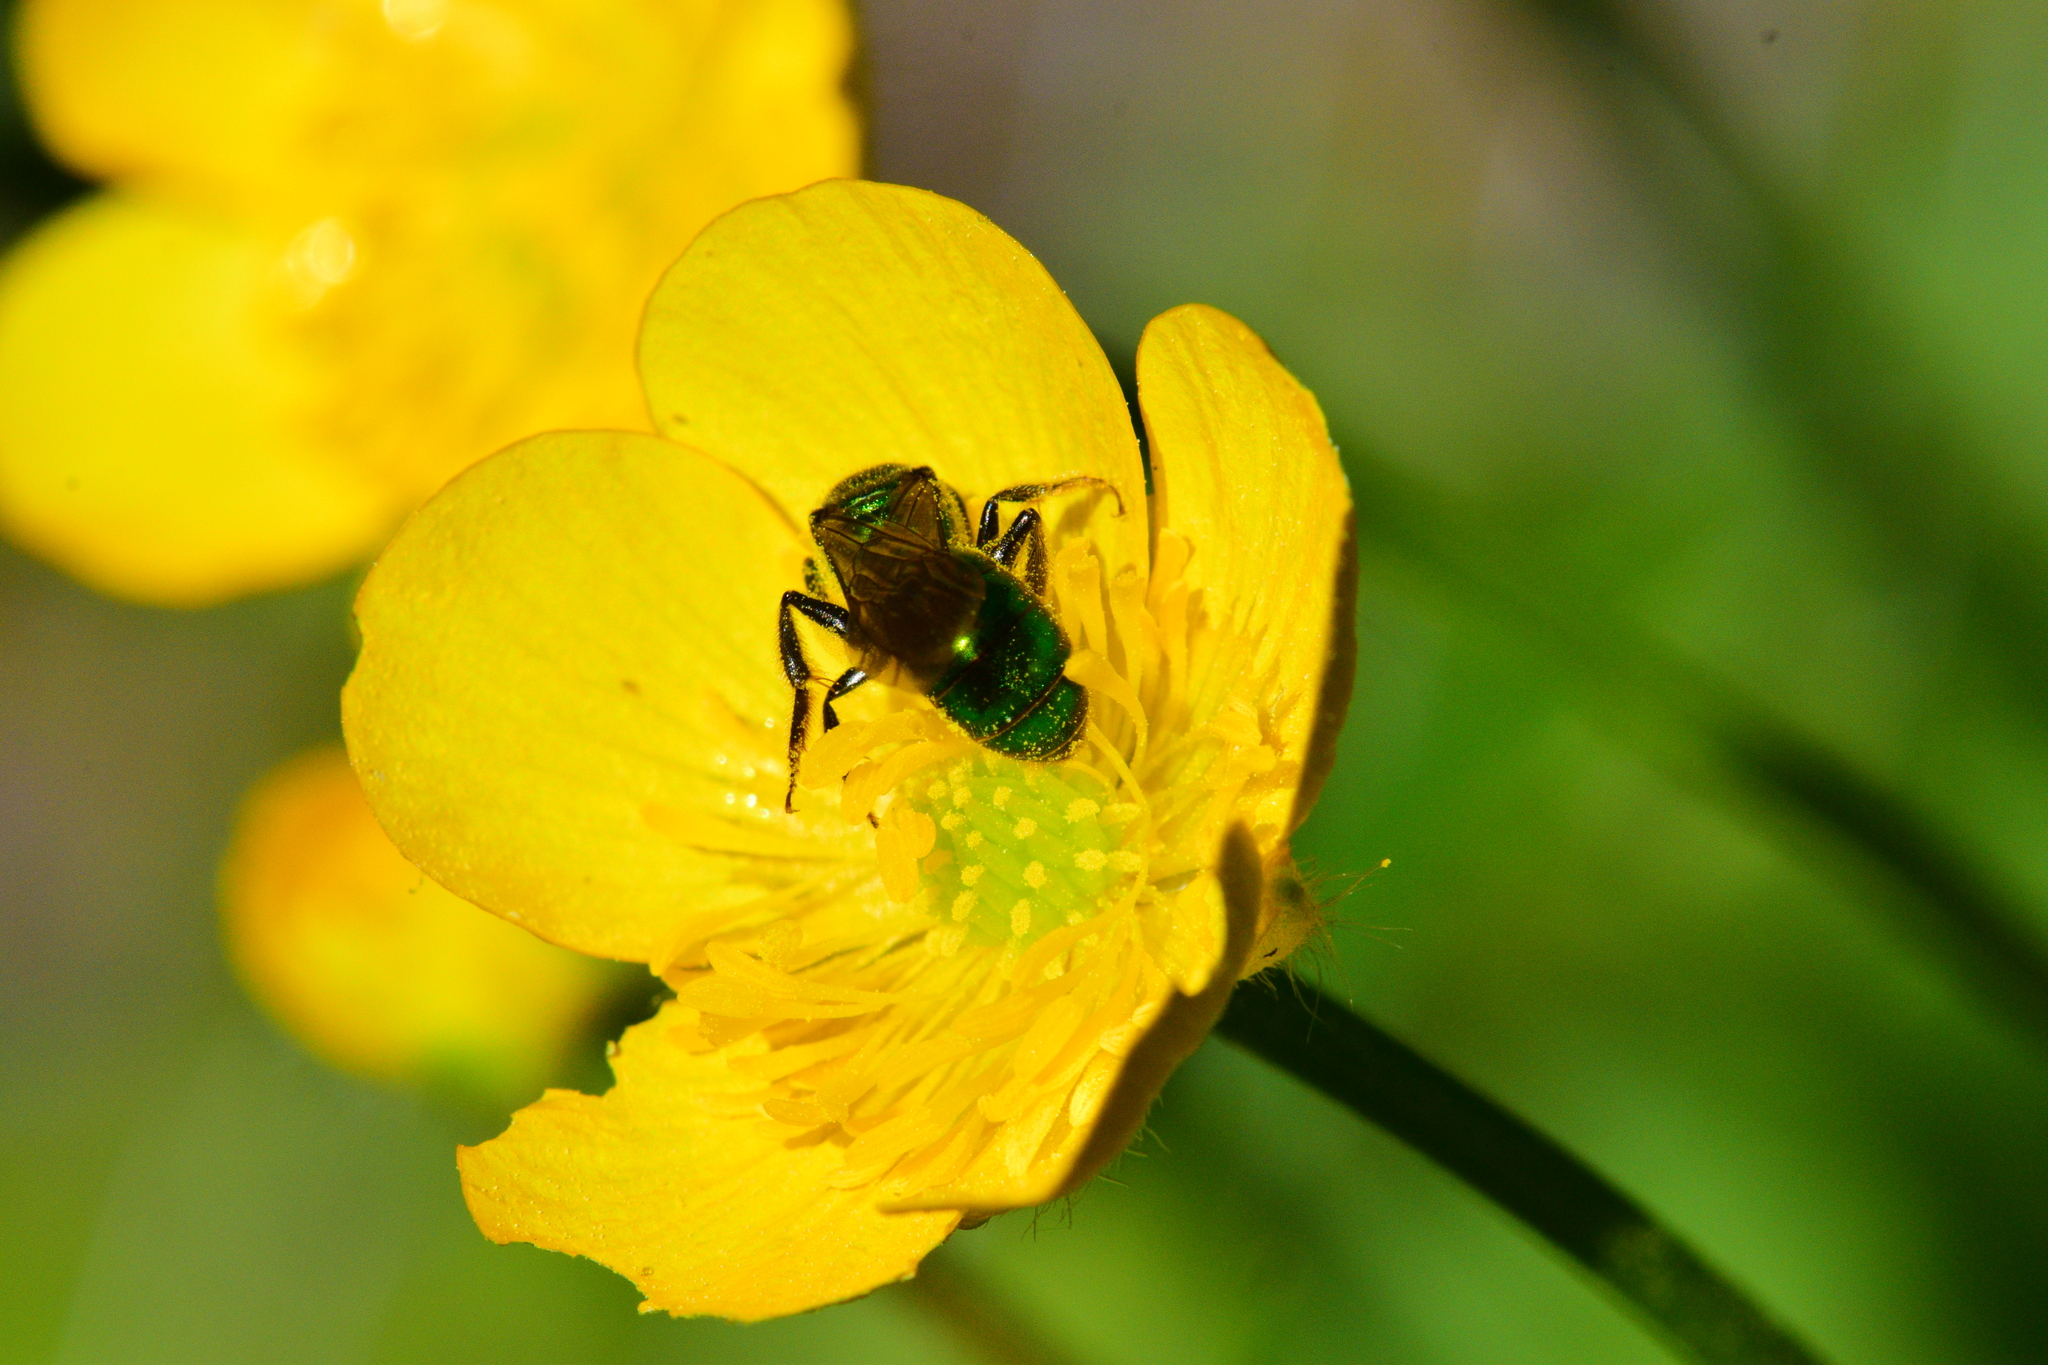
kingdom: Animalia
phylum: Arthropoda
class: Insecta
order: Hymenoptera
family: Halictidae
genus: Augochlora
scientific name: Augochlora pura
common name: Pure green sweat bee
